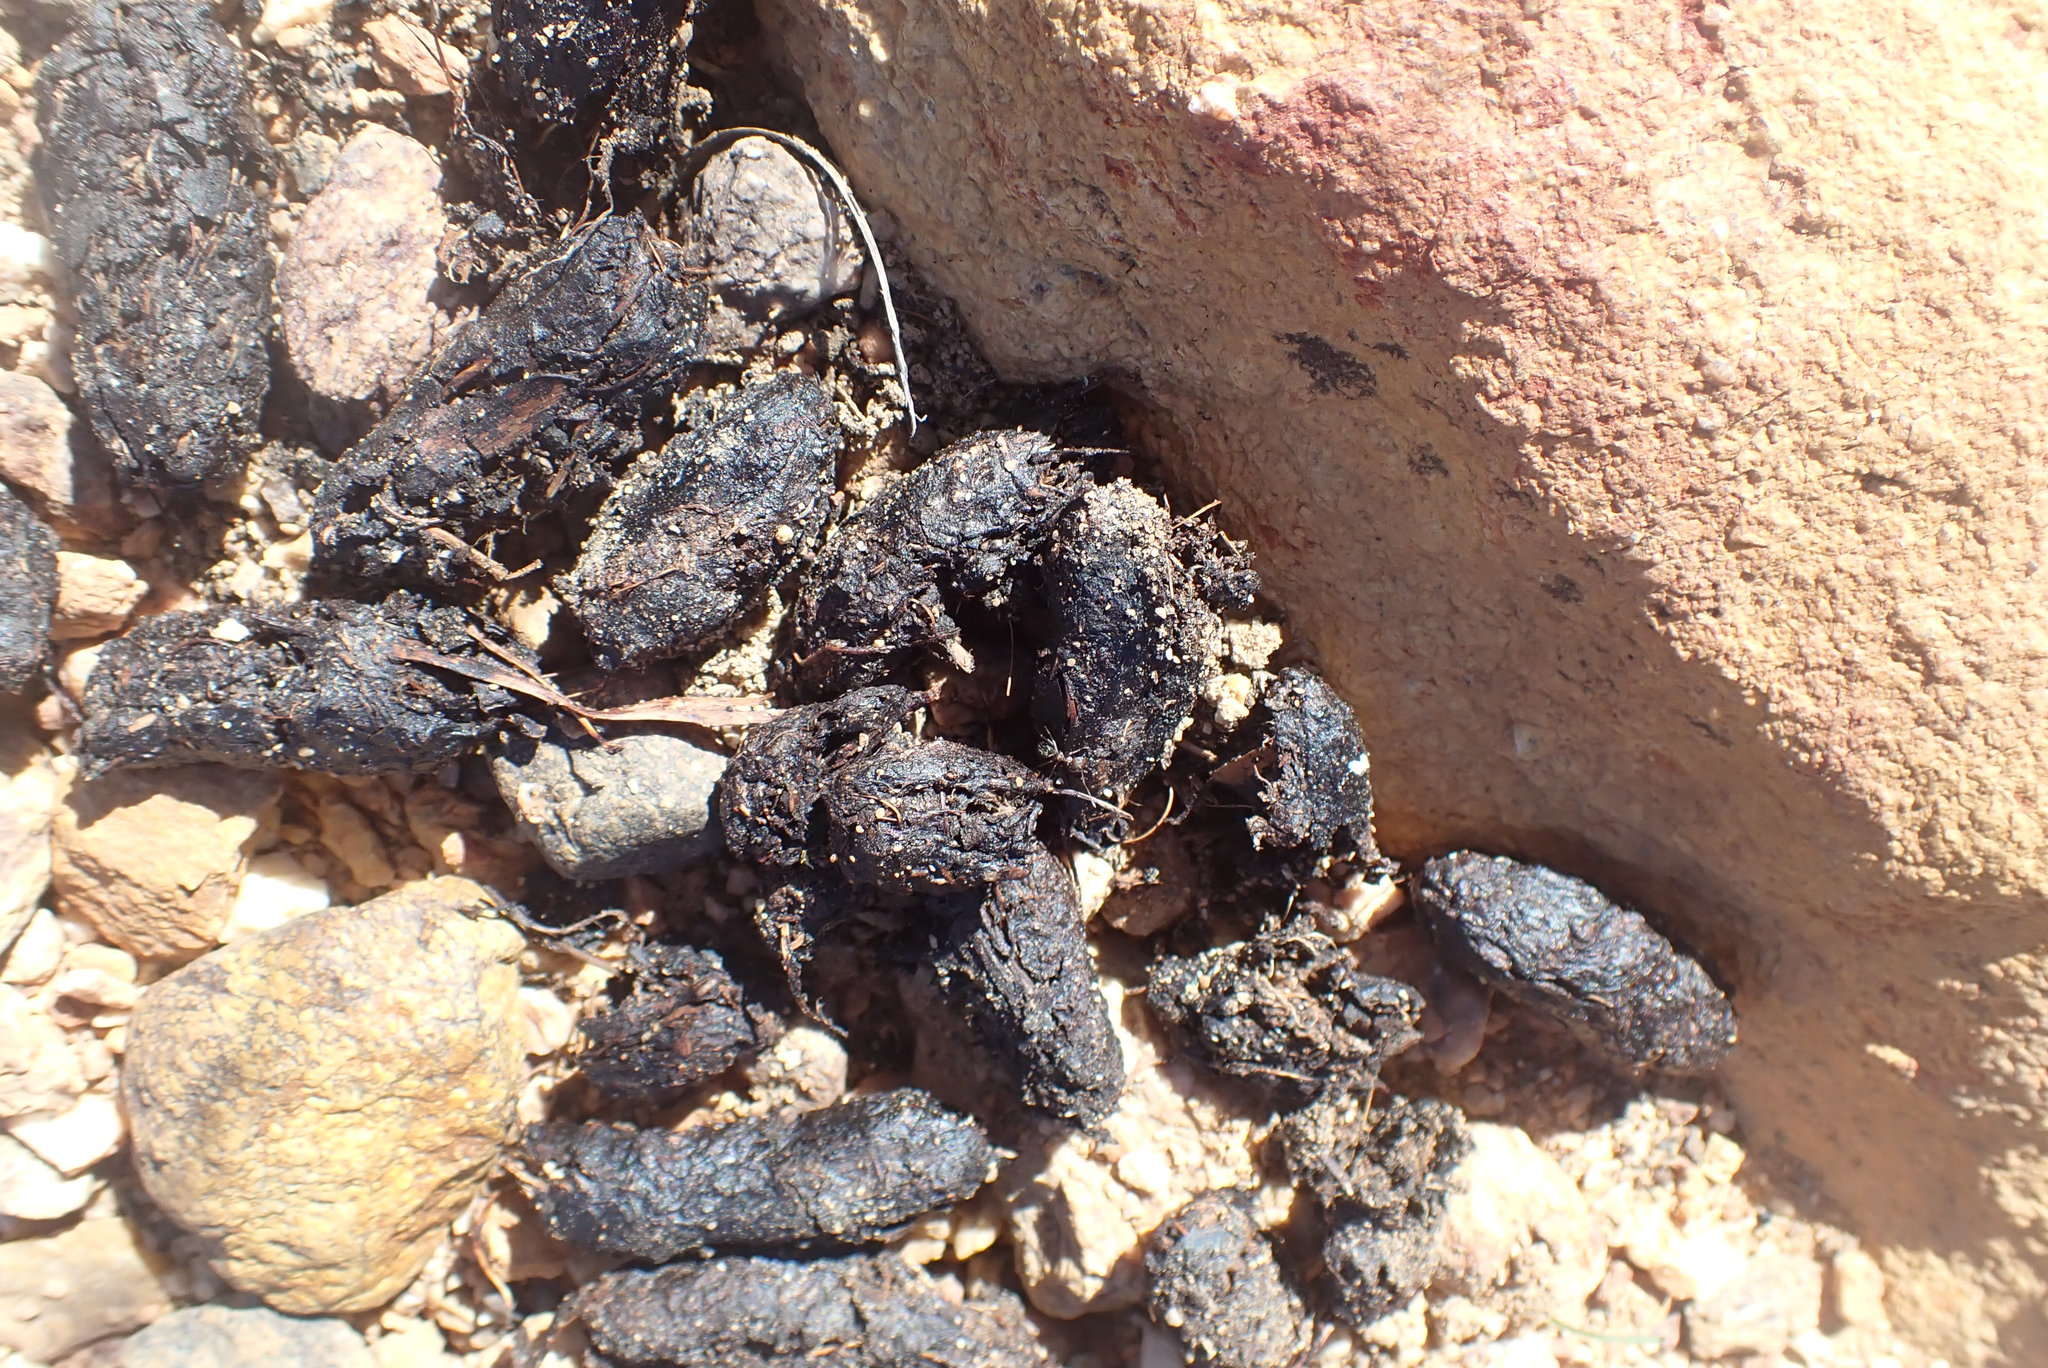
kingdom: Animalia
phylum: Chordata
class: Mammalia
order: Rodentia
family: Hystricidae
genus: Hystrix
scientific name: Hystrix africaeaustralis
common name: Cape porcupine
